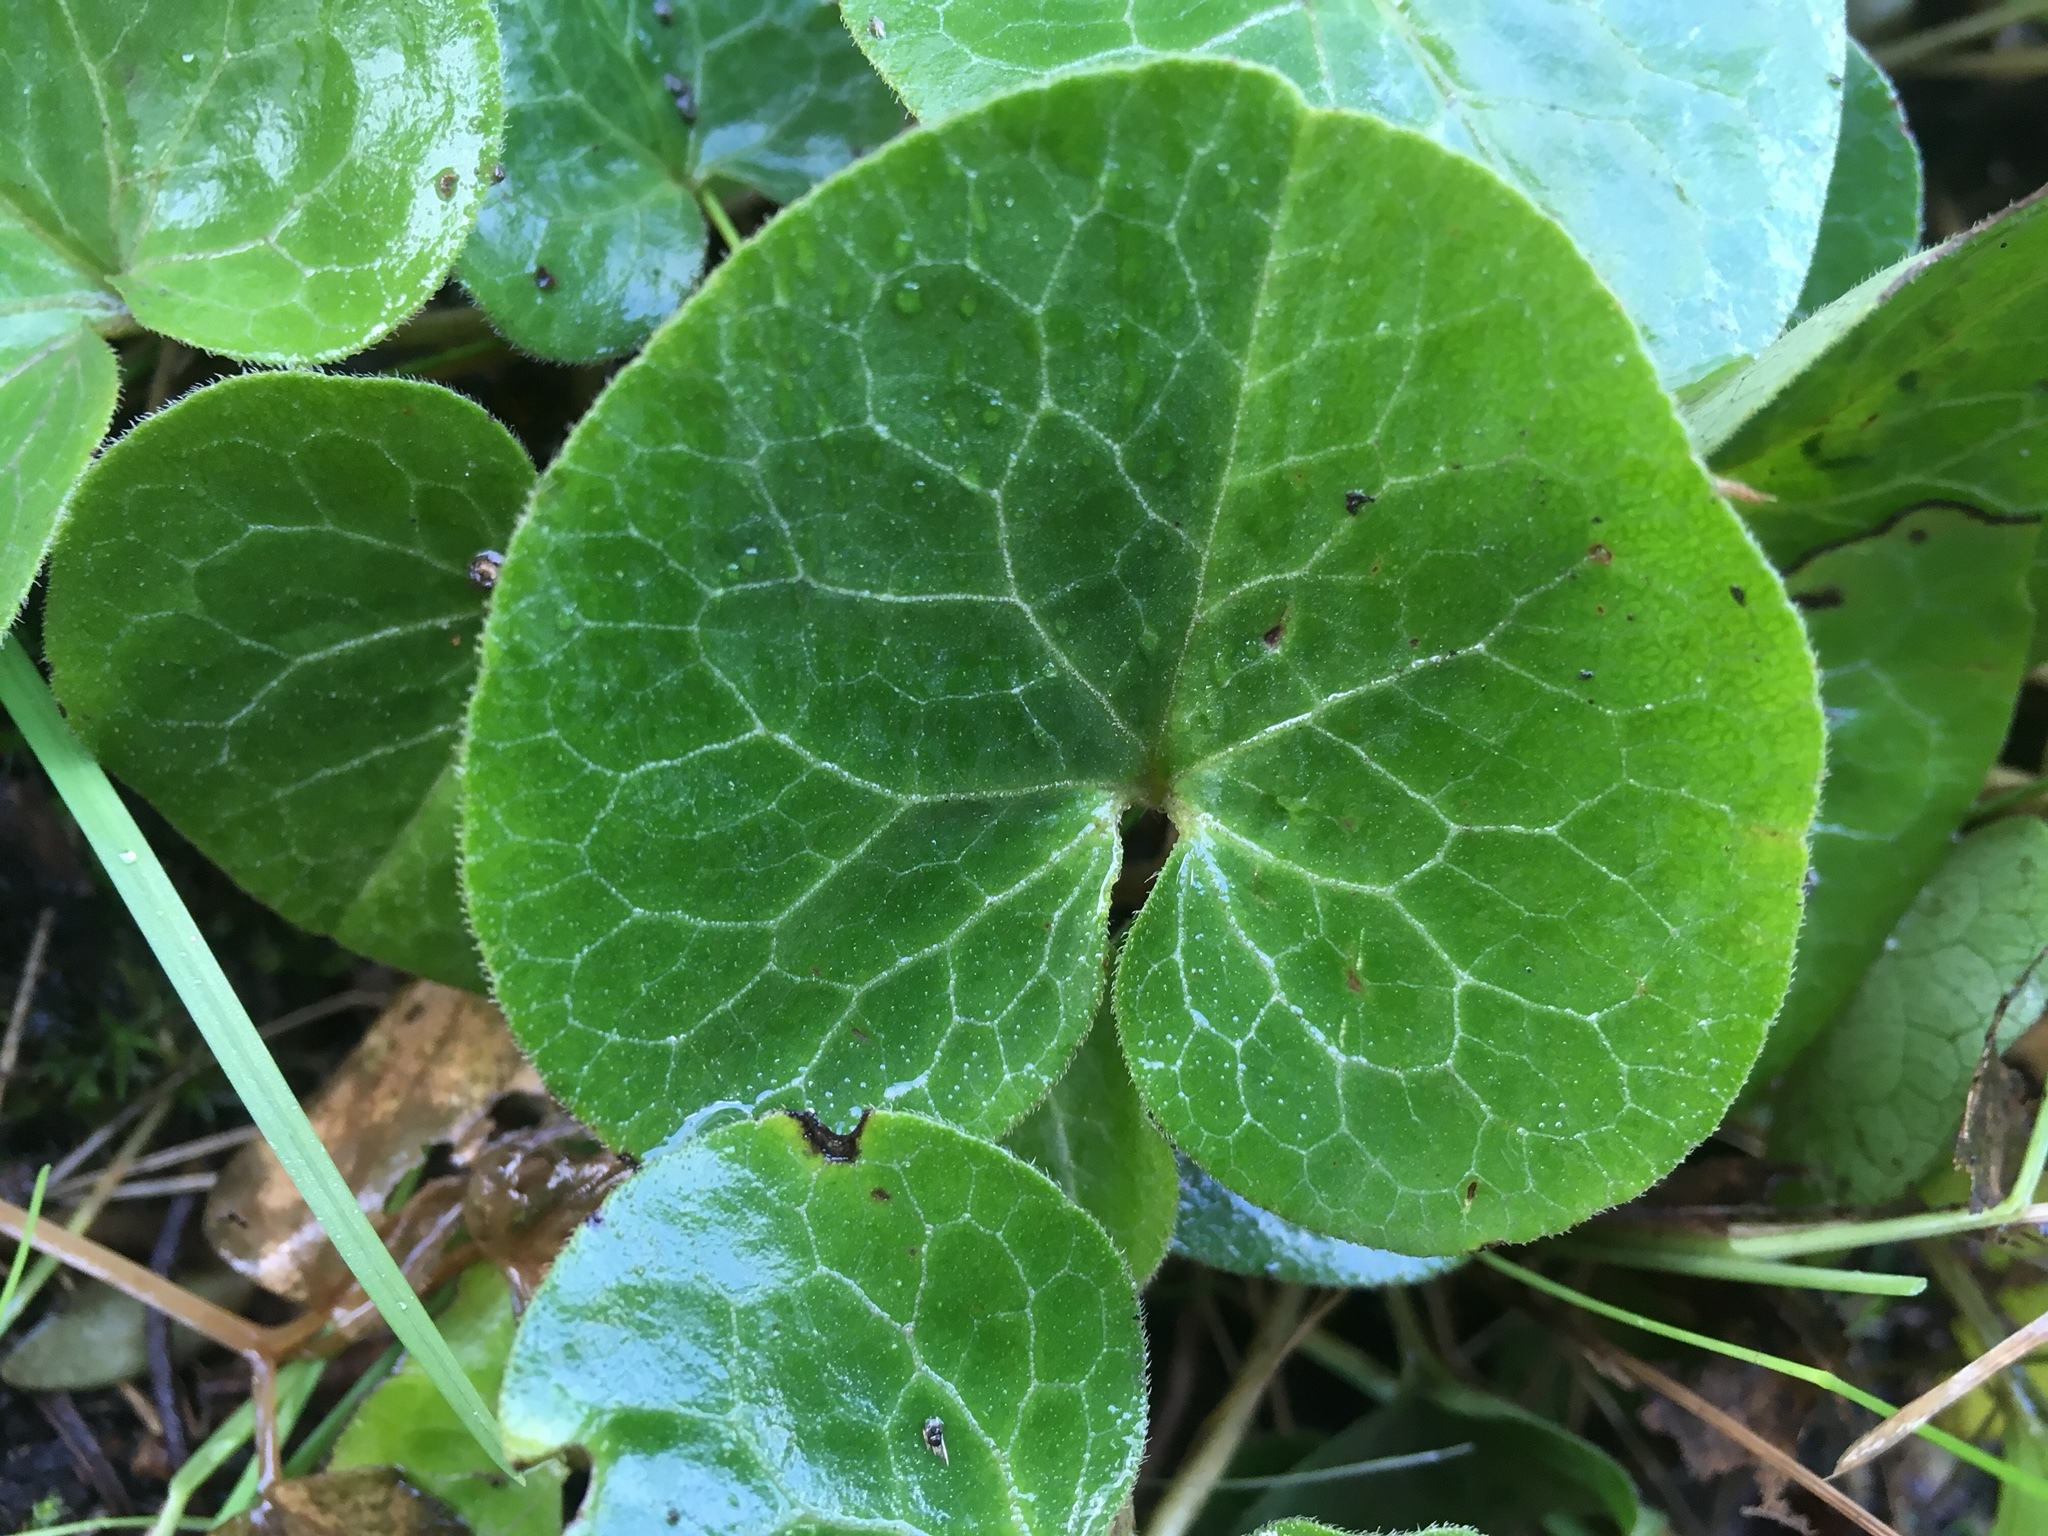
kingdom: Plantae
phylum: Tracheophyta
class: Magnoliopsida
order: Piperales
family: Aristolochiaceae
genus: Asarum
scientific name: Asarum europaeum
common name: Asarabacca
